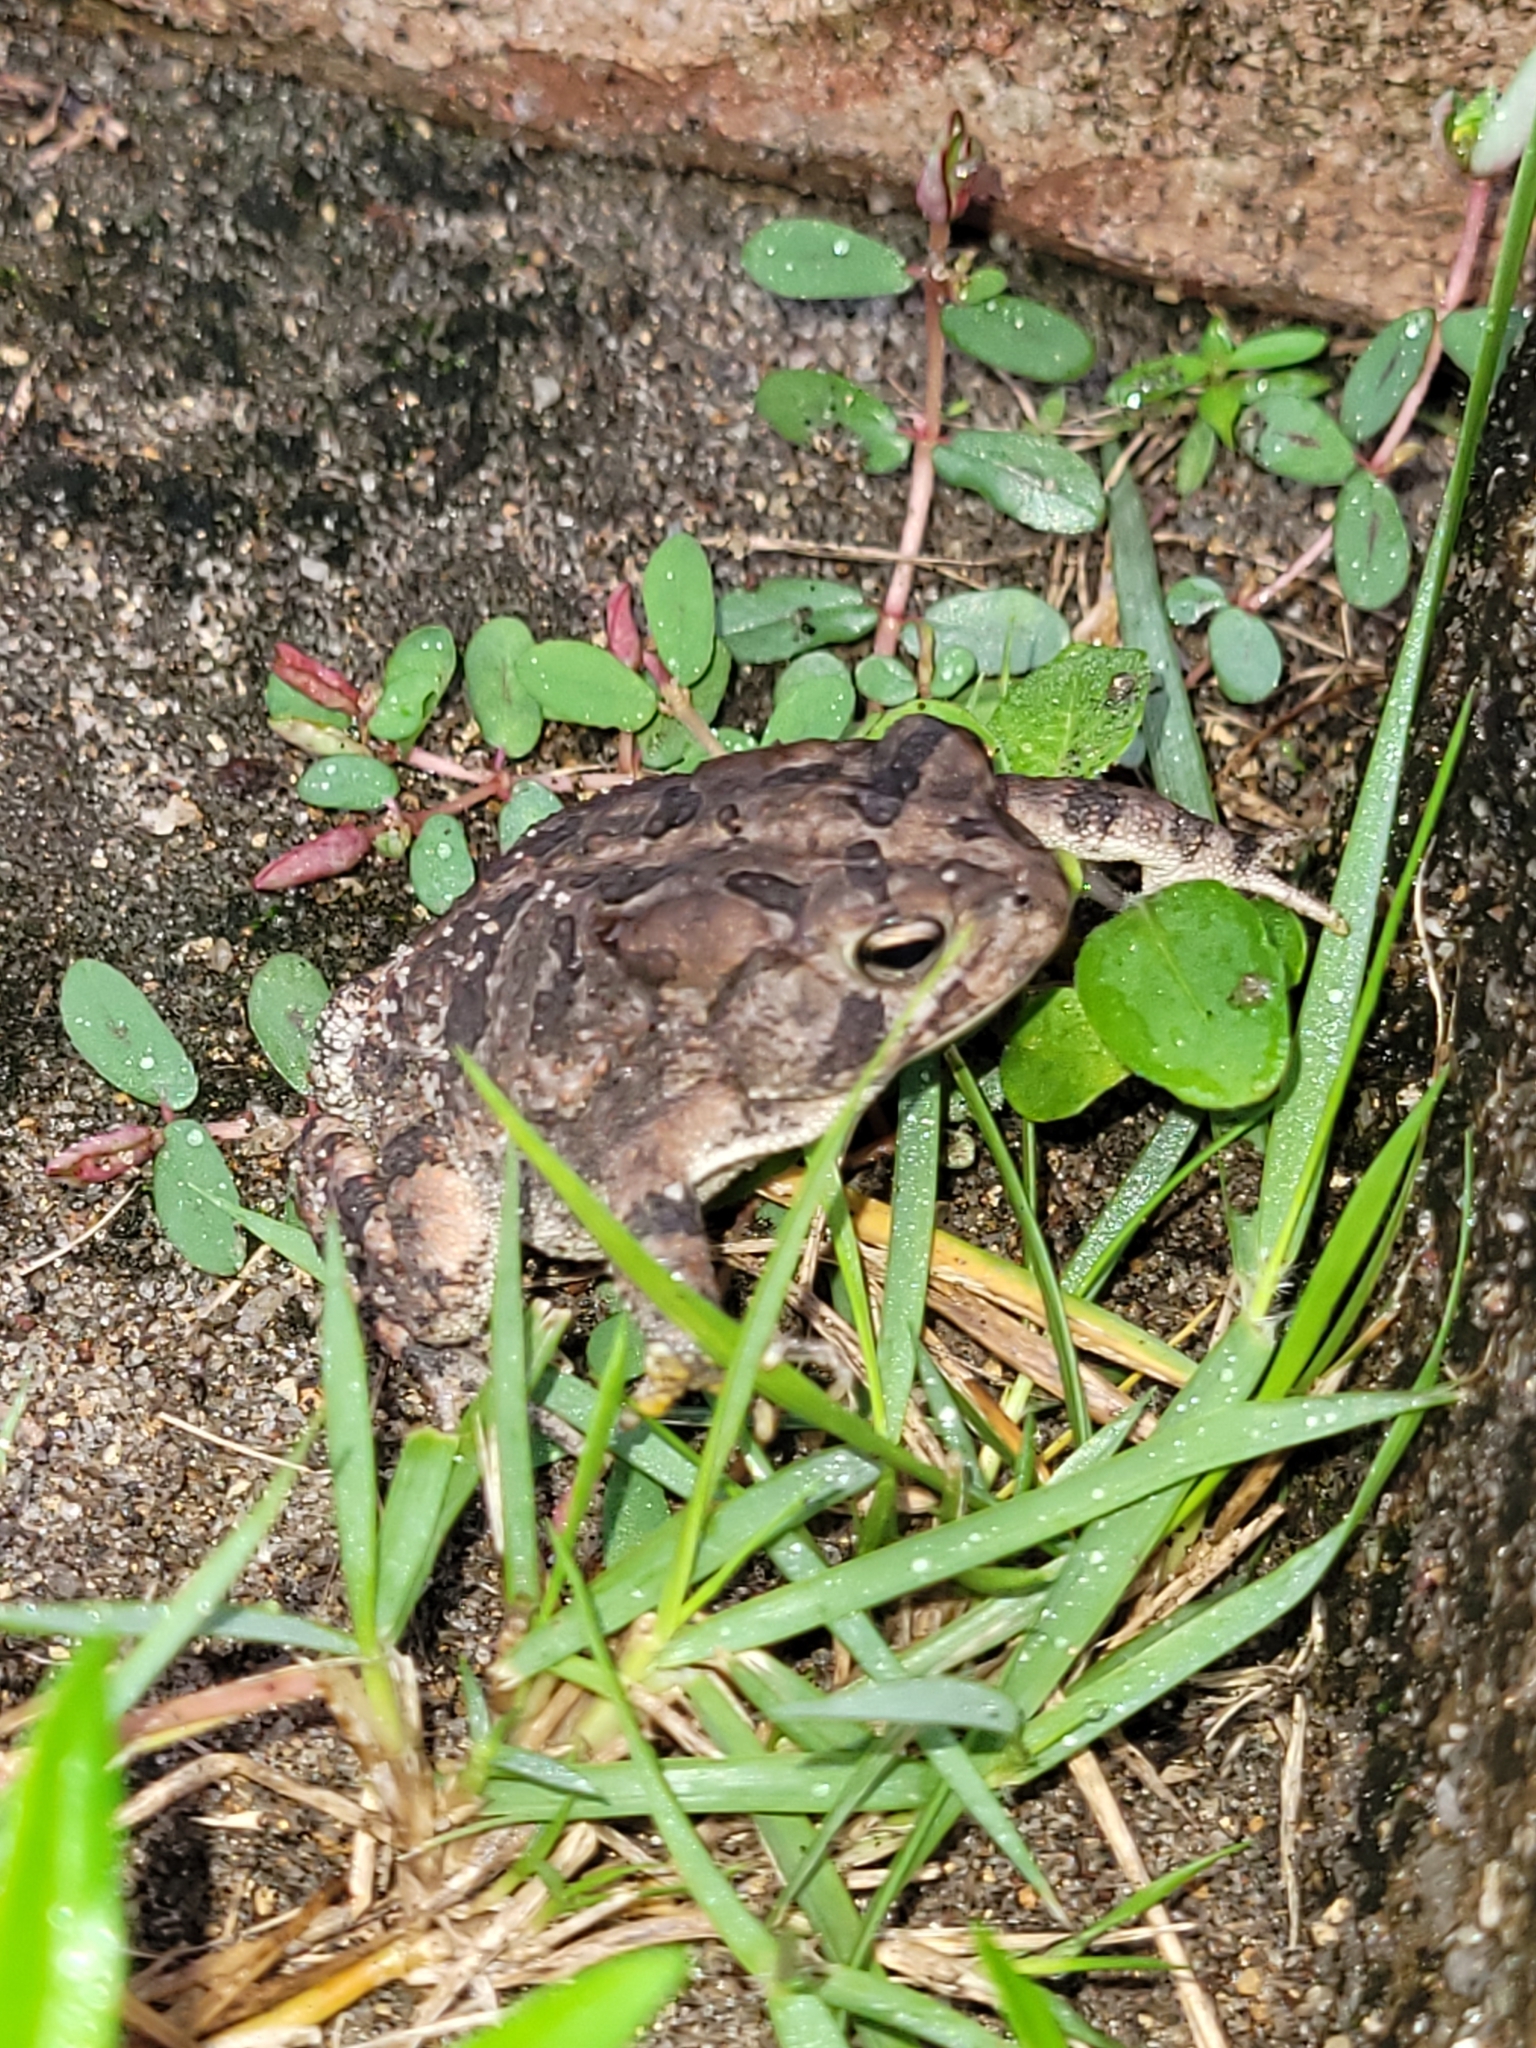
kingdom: Animalia
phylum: Chordata
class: Amphibia
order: Anura
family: Bufonidae
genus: Anaxyrus
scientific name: Anaxyrus terrestris
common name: Southern toad
